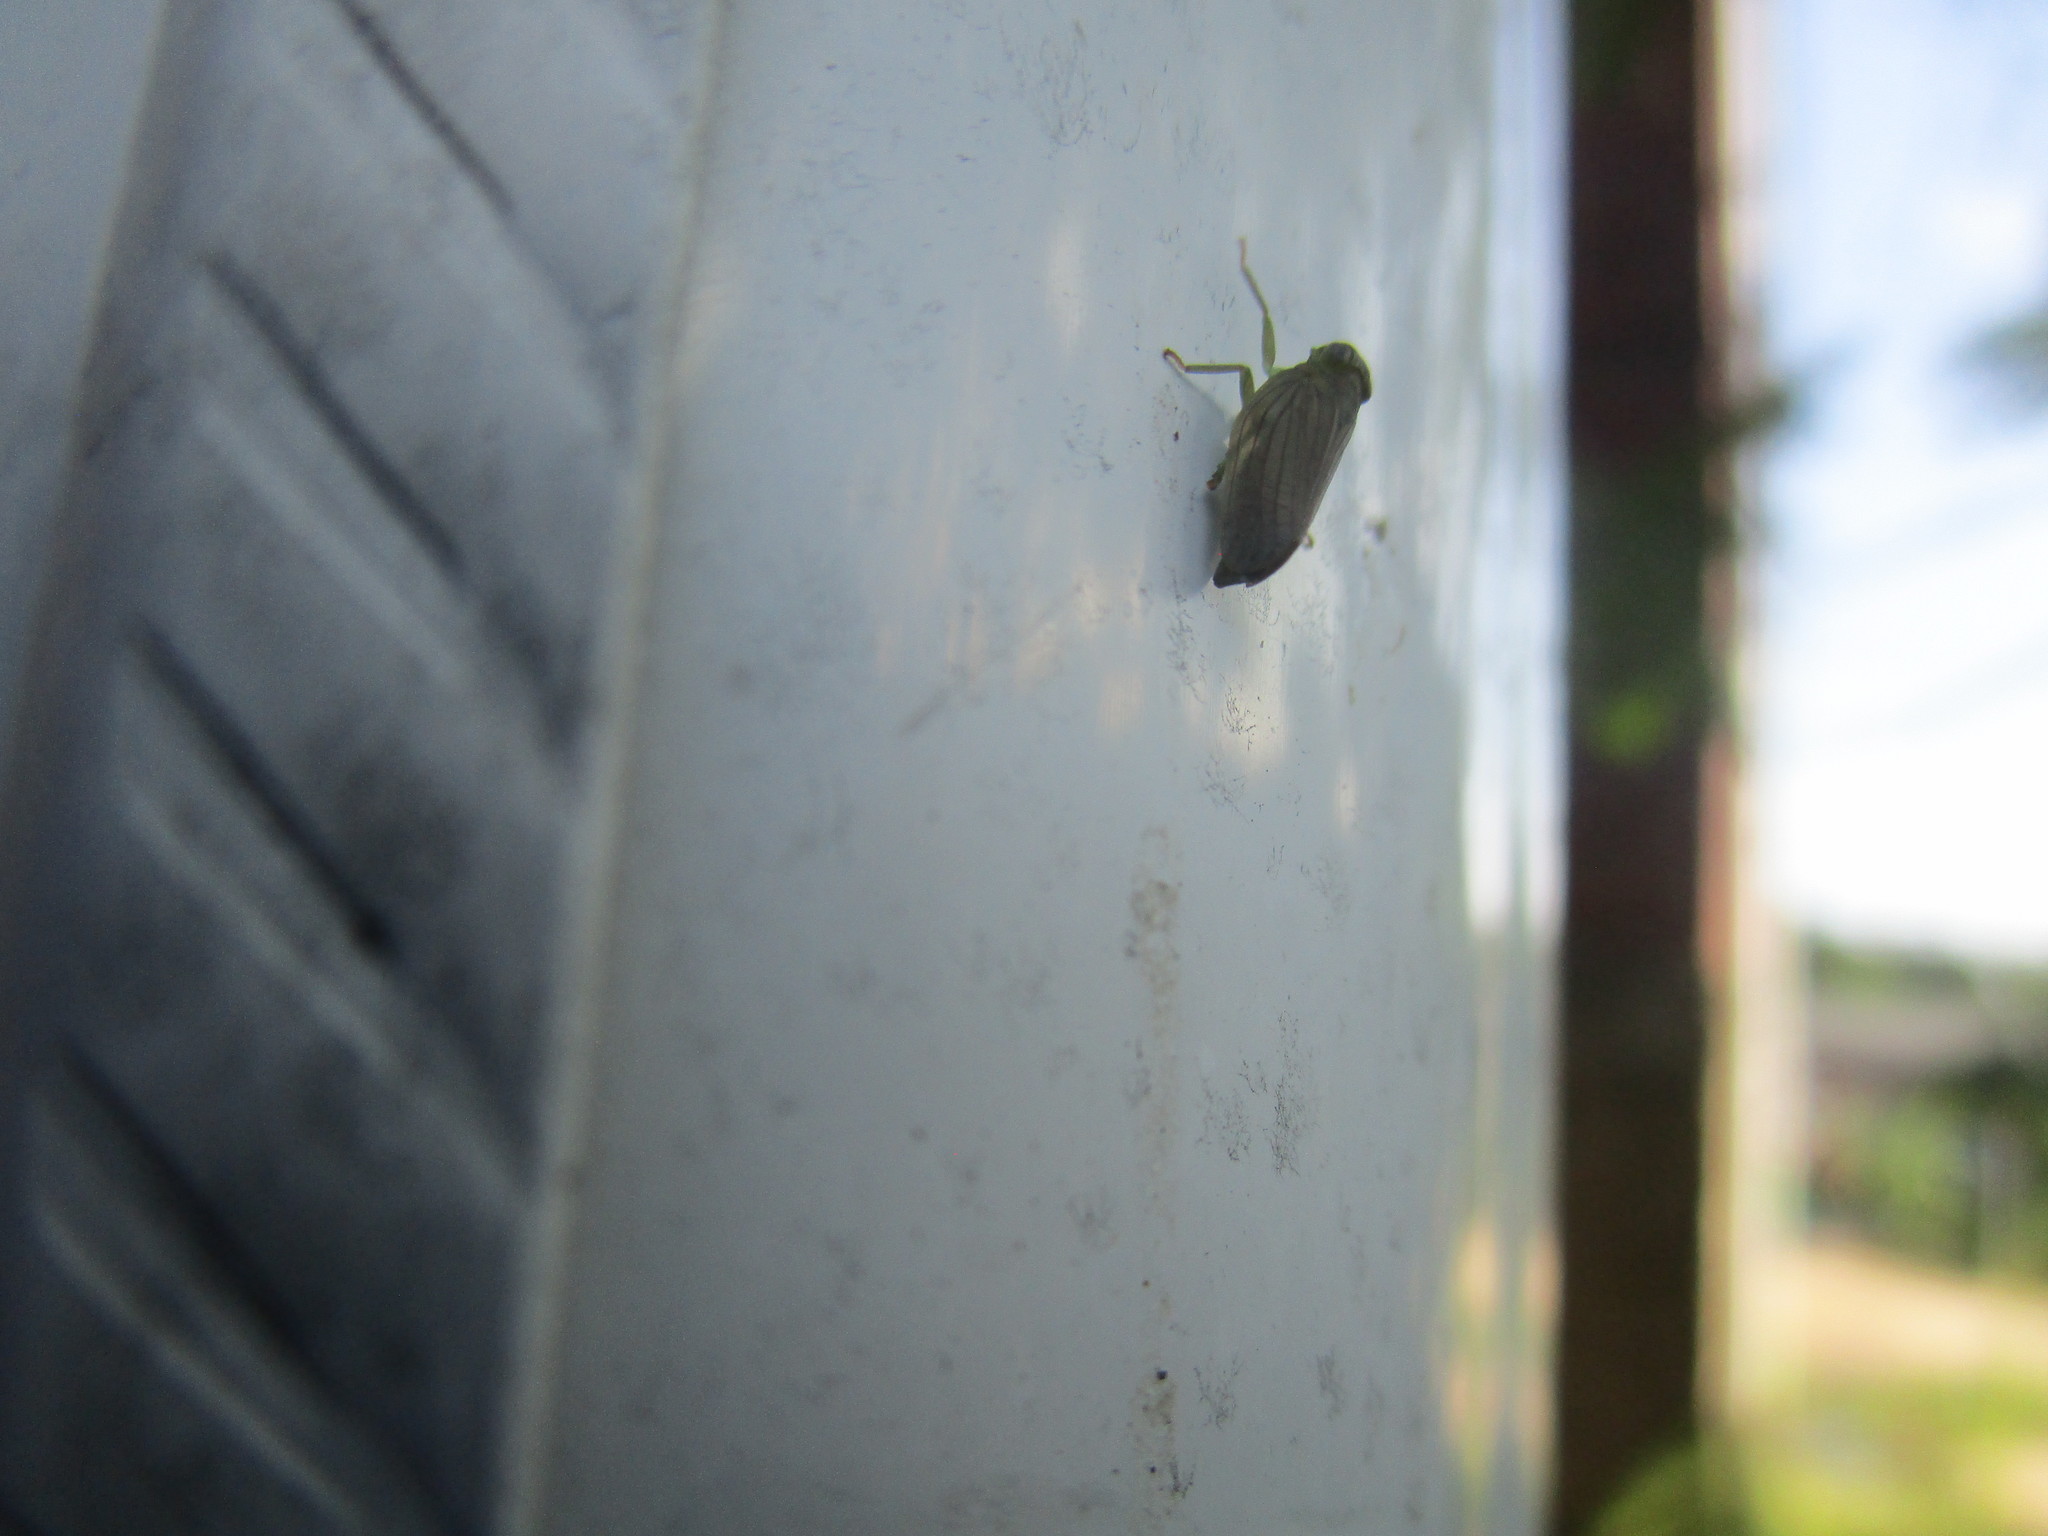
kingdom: Animalia
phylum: Arthropoda
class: Insecta
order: Hemiptera
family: Issidae
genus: Aplos
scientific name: Aplos simplex
